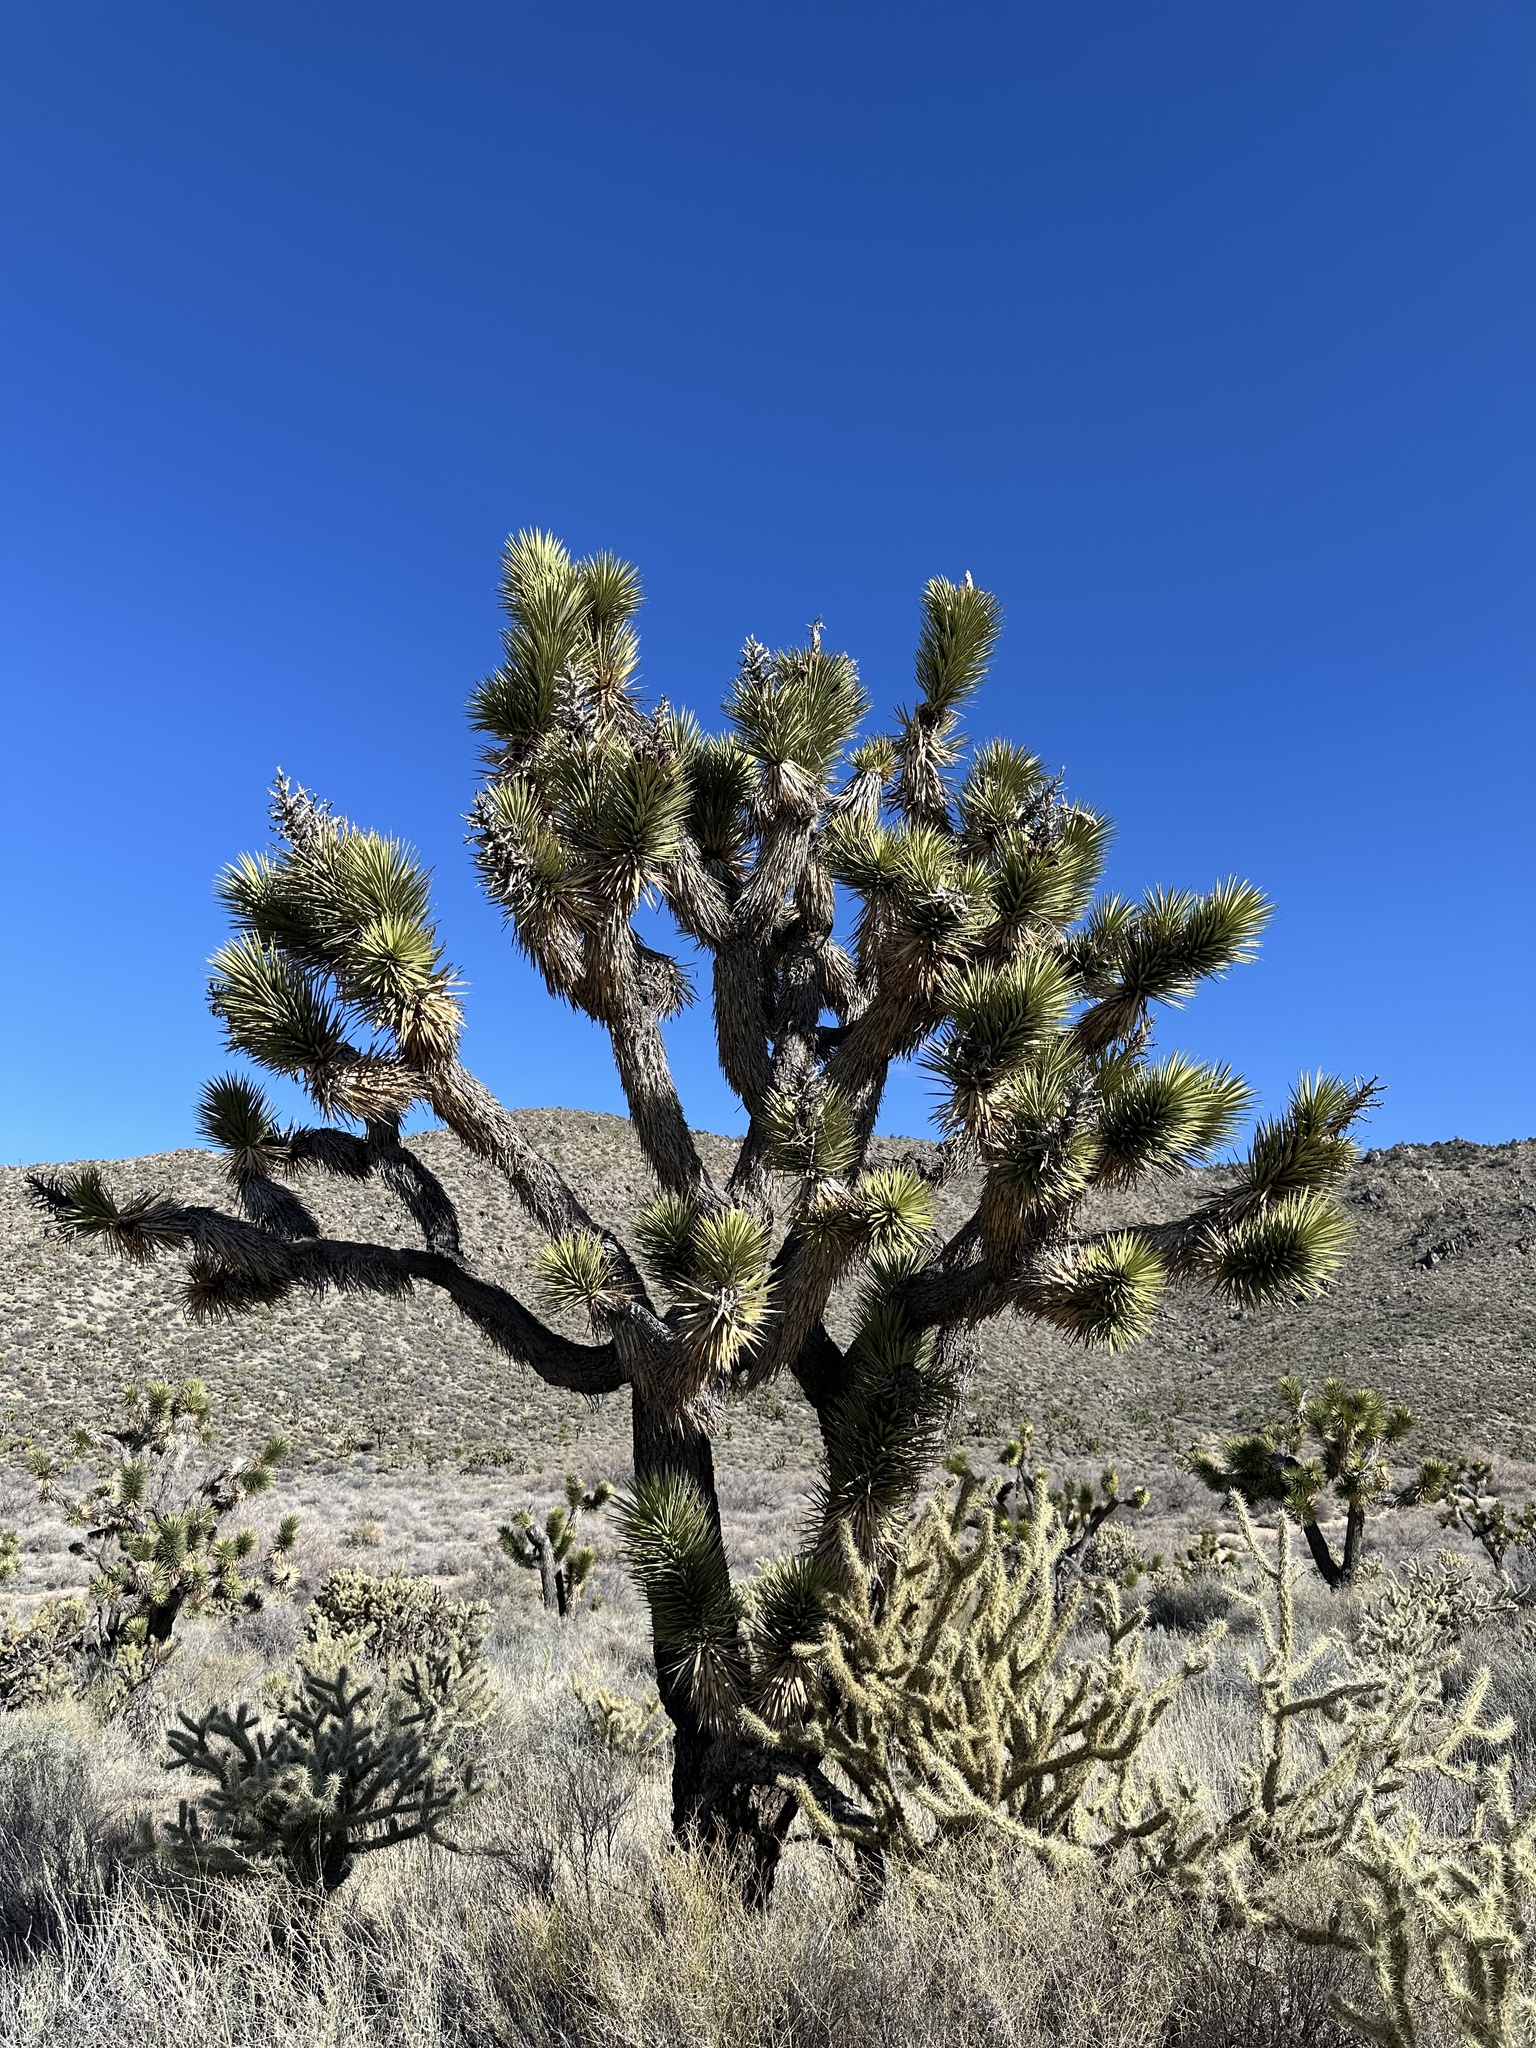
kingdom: Plantae
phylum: Tracheophyta
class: Liliopsida
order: Asparagales
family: Asparagaceae
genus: Yucca
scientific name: Yucca brevifolia
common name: Joshua tree
